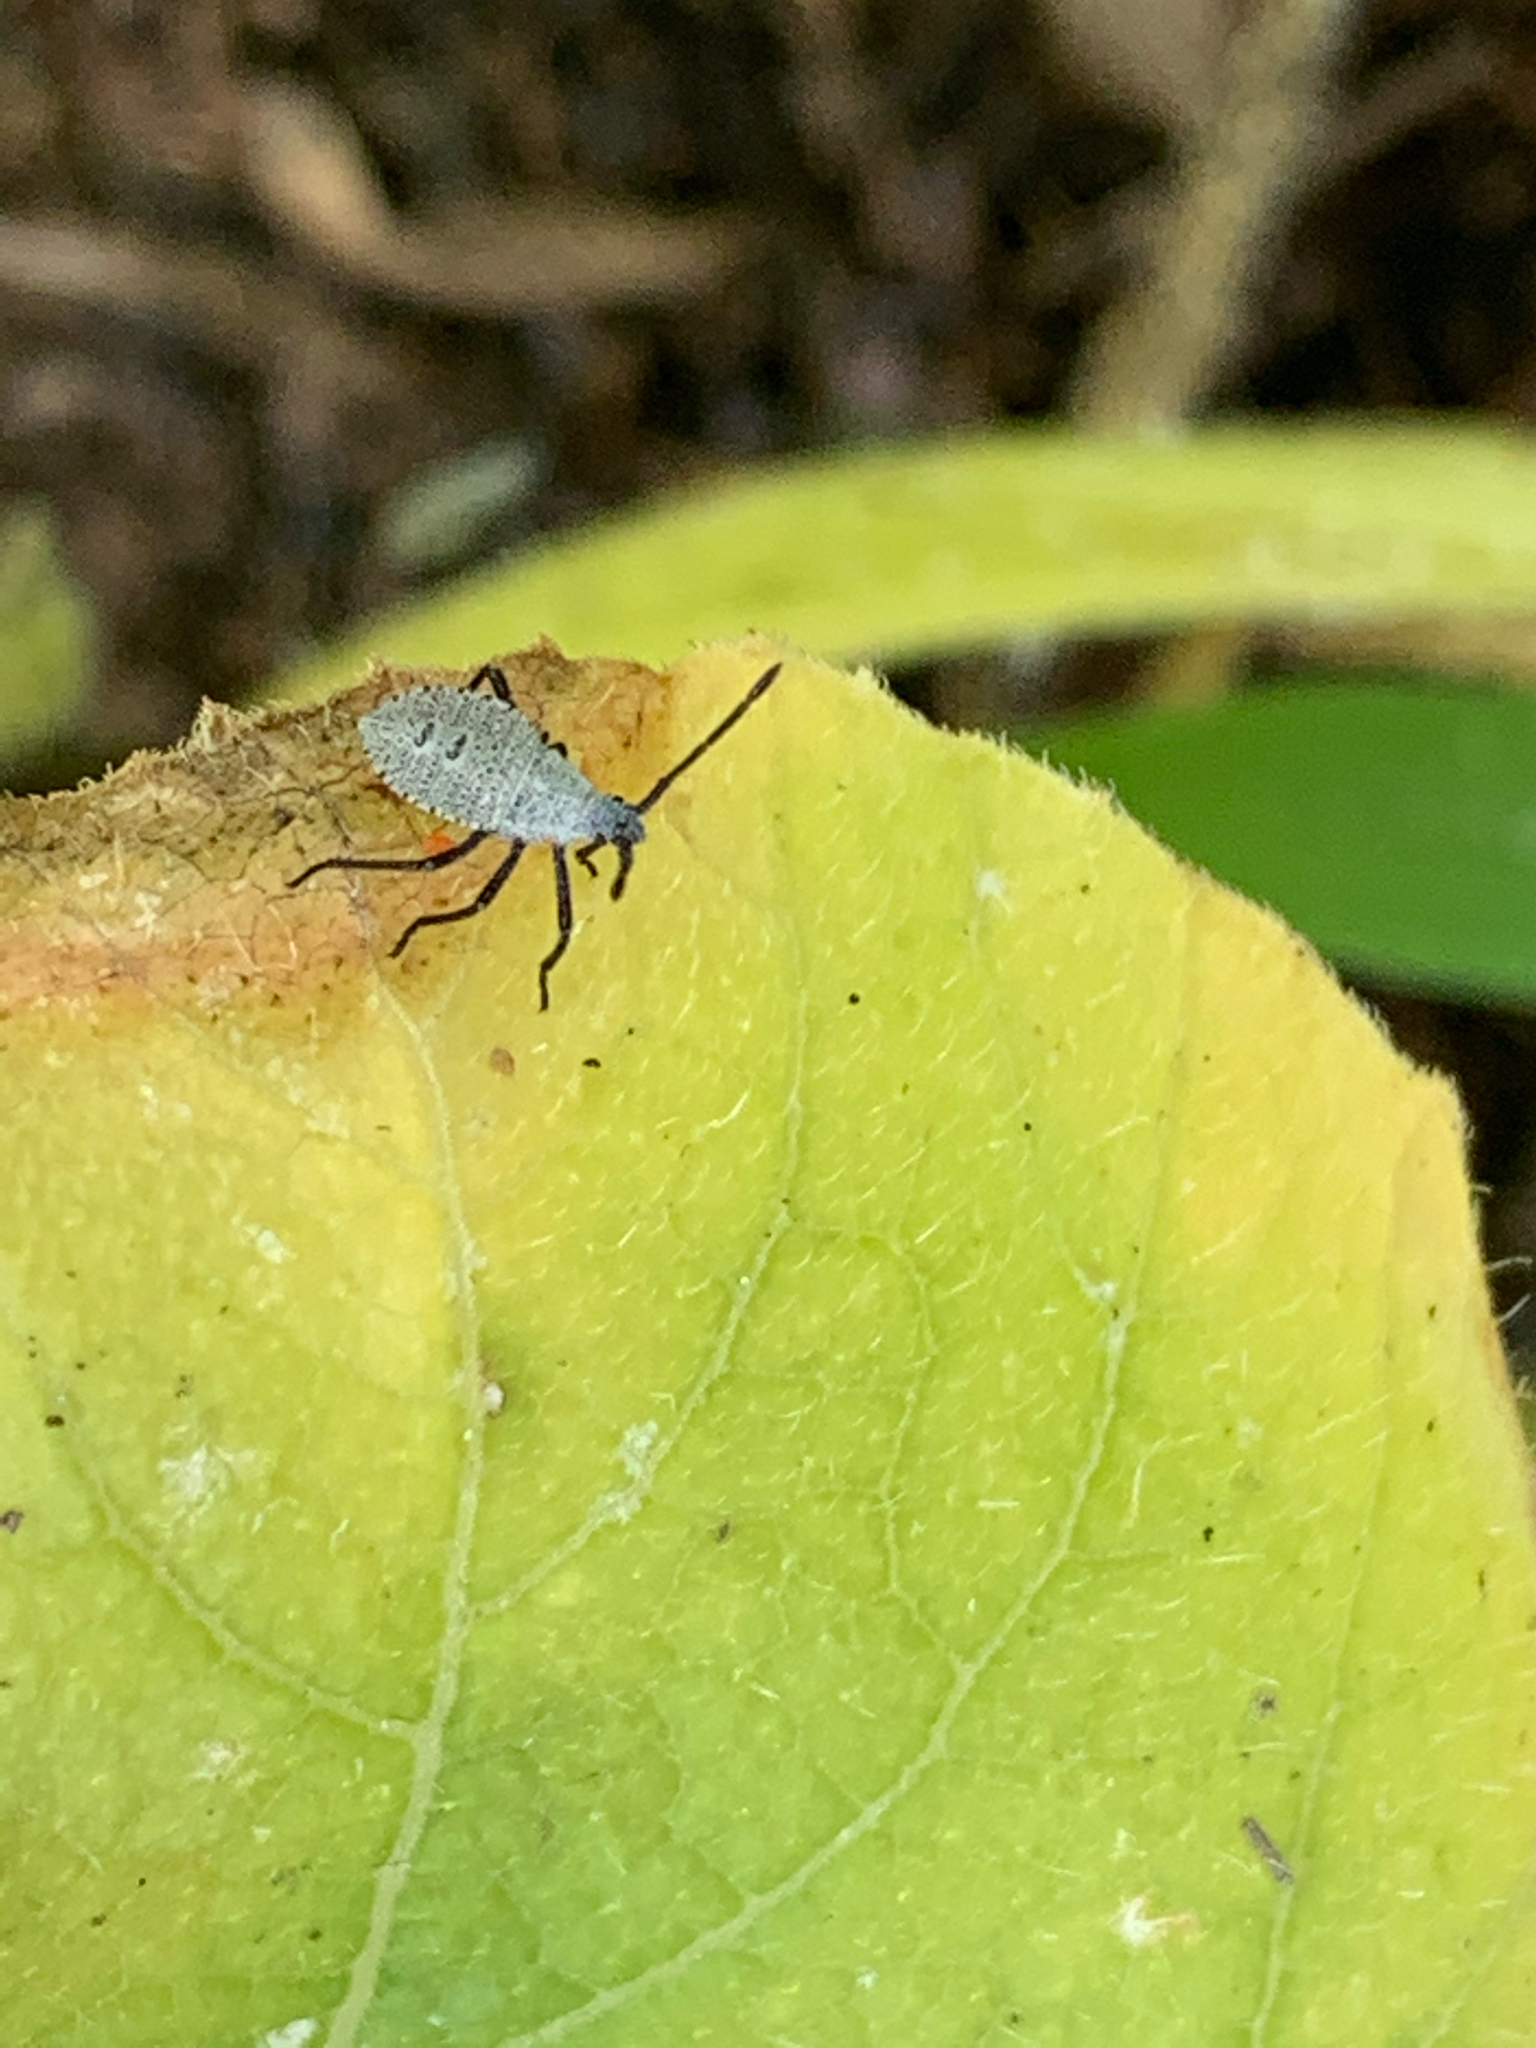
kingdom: Animalia
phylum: Arthropoda
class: Insecta
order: Hemiptera
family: Coreidae
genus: Anasa
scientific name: Anasa tristis
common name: Squash bug
